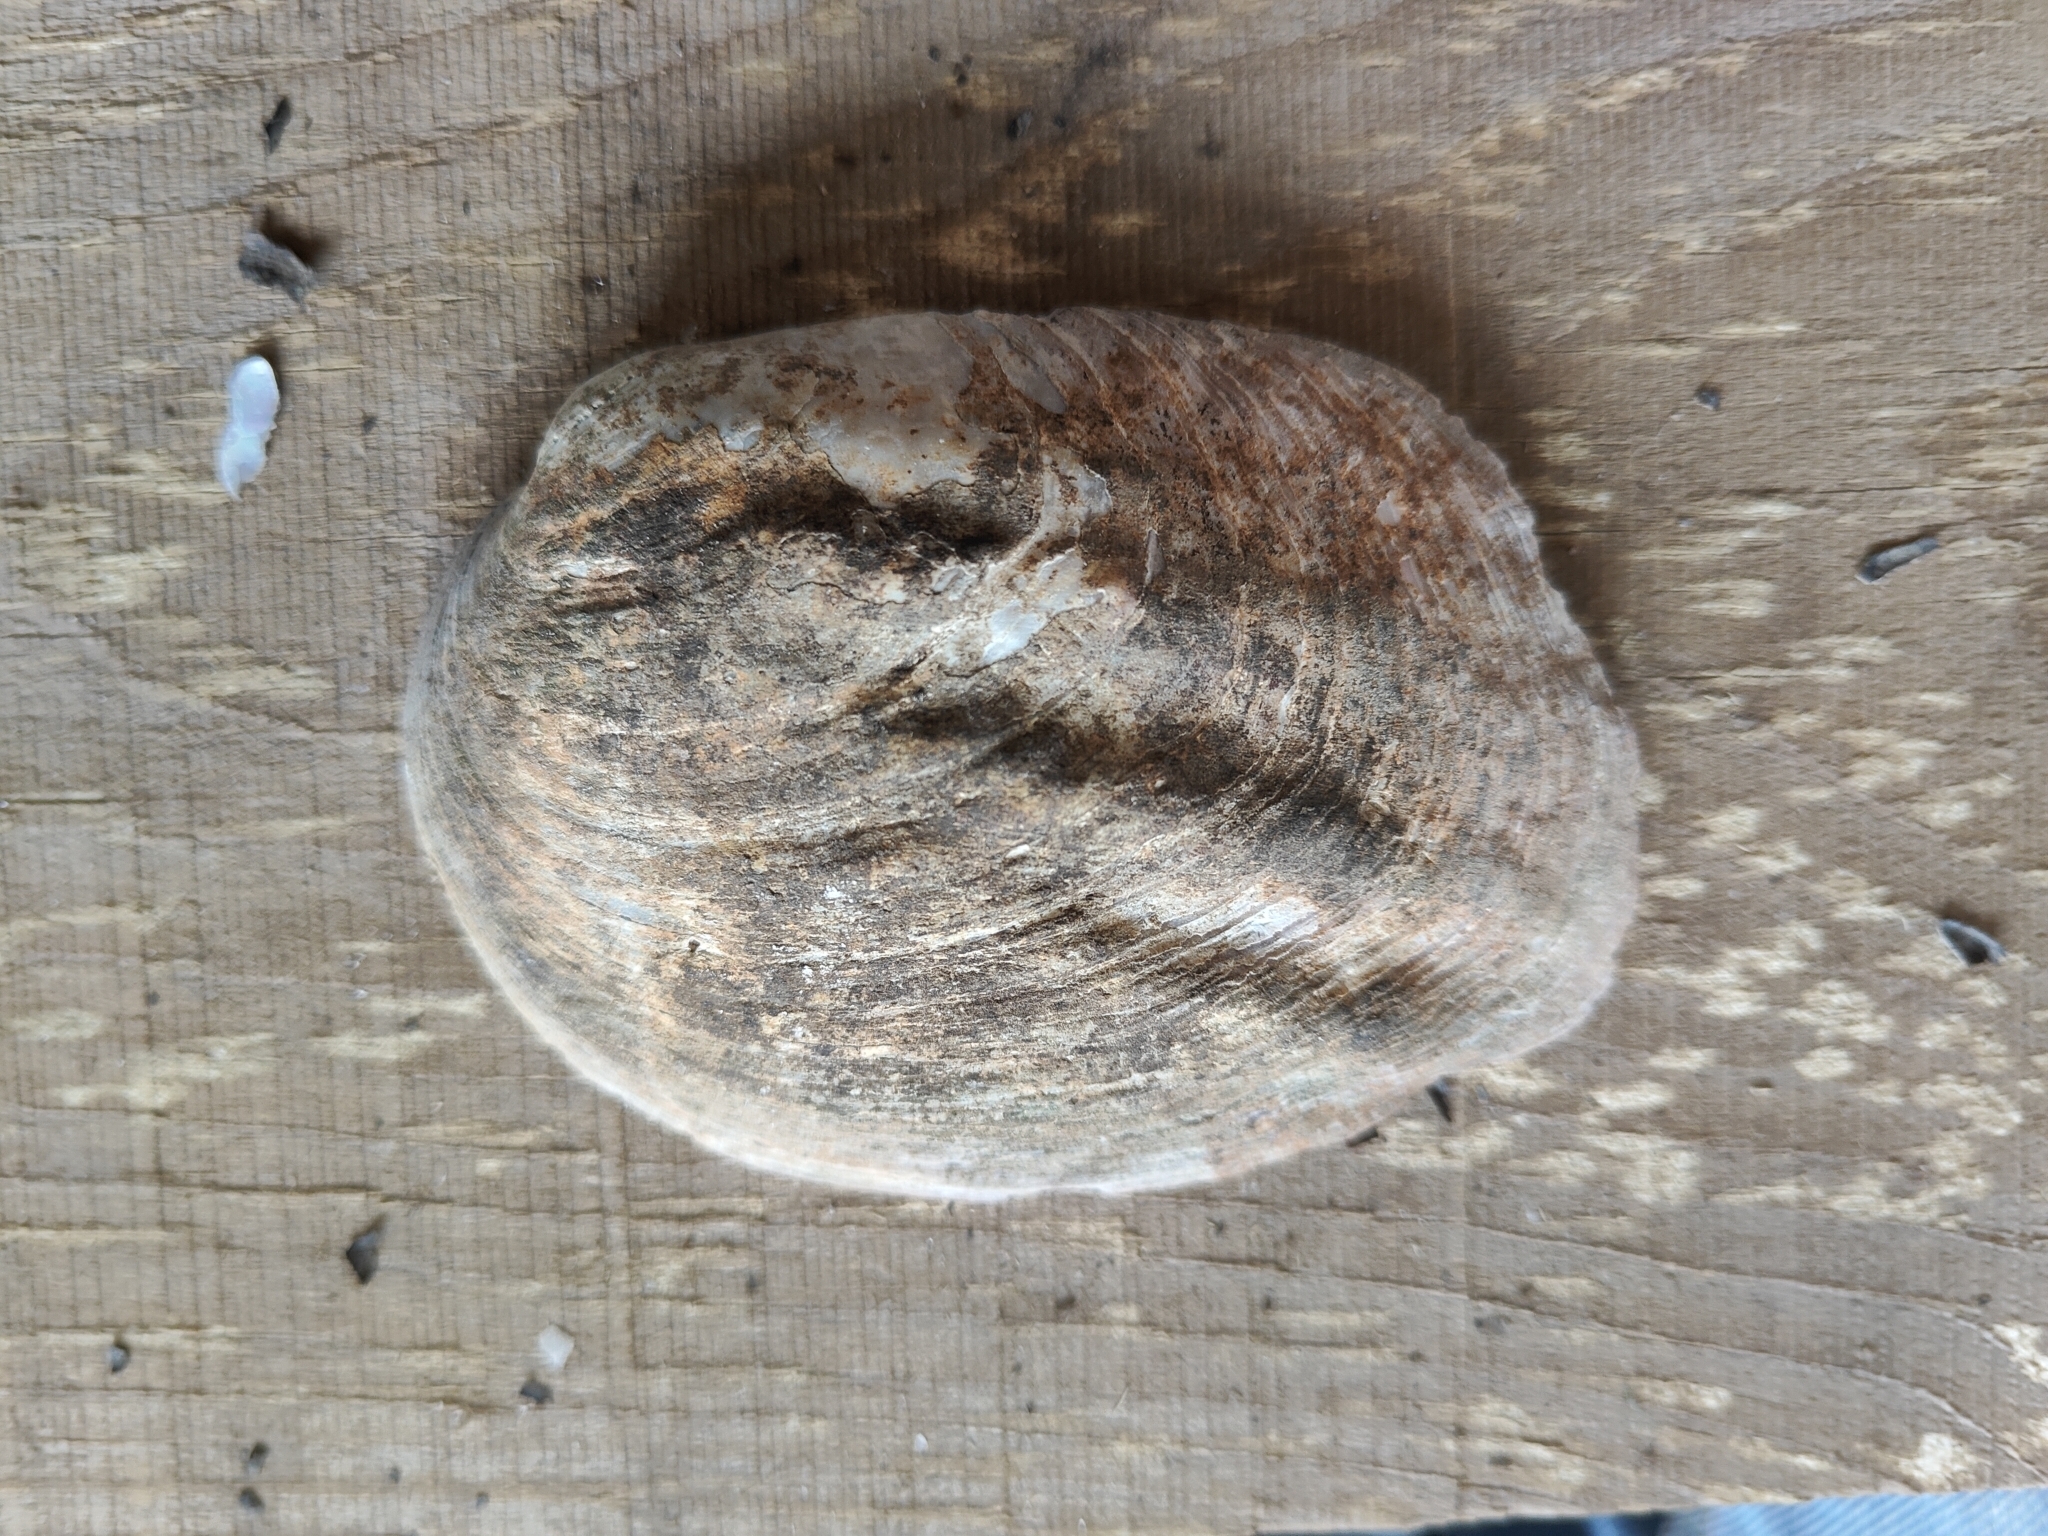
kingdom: Animalia
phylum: Mollusca
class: Bivalvia
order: Unionida
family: Unionidae
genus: Amblema
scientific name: Amblema plicata
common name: Threeridge
